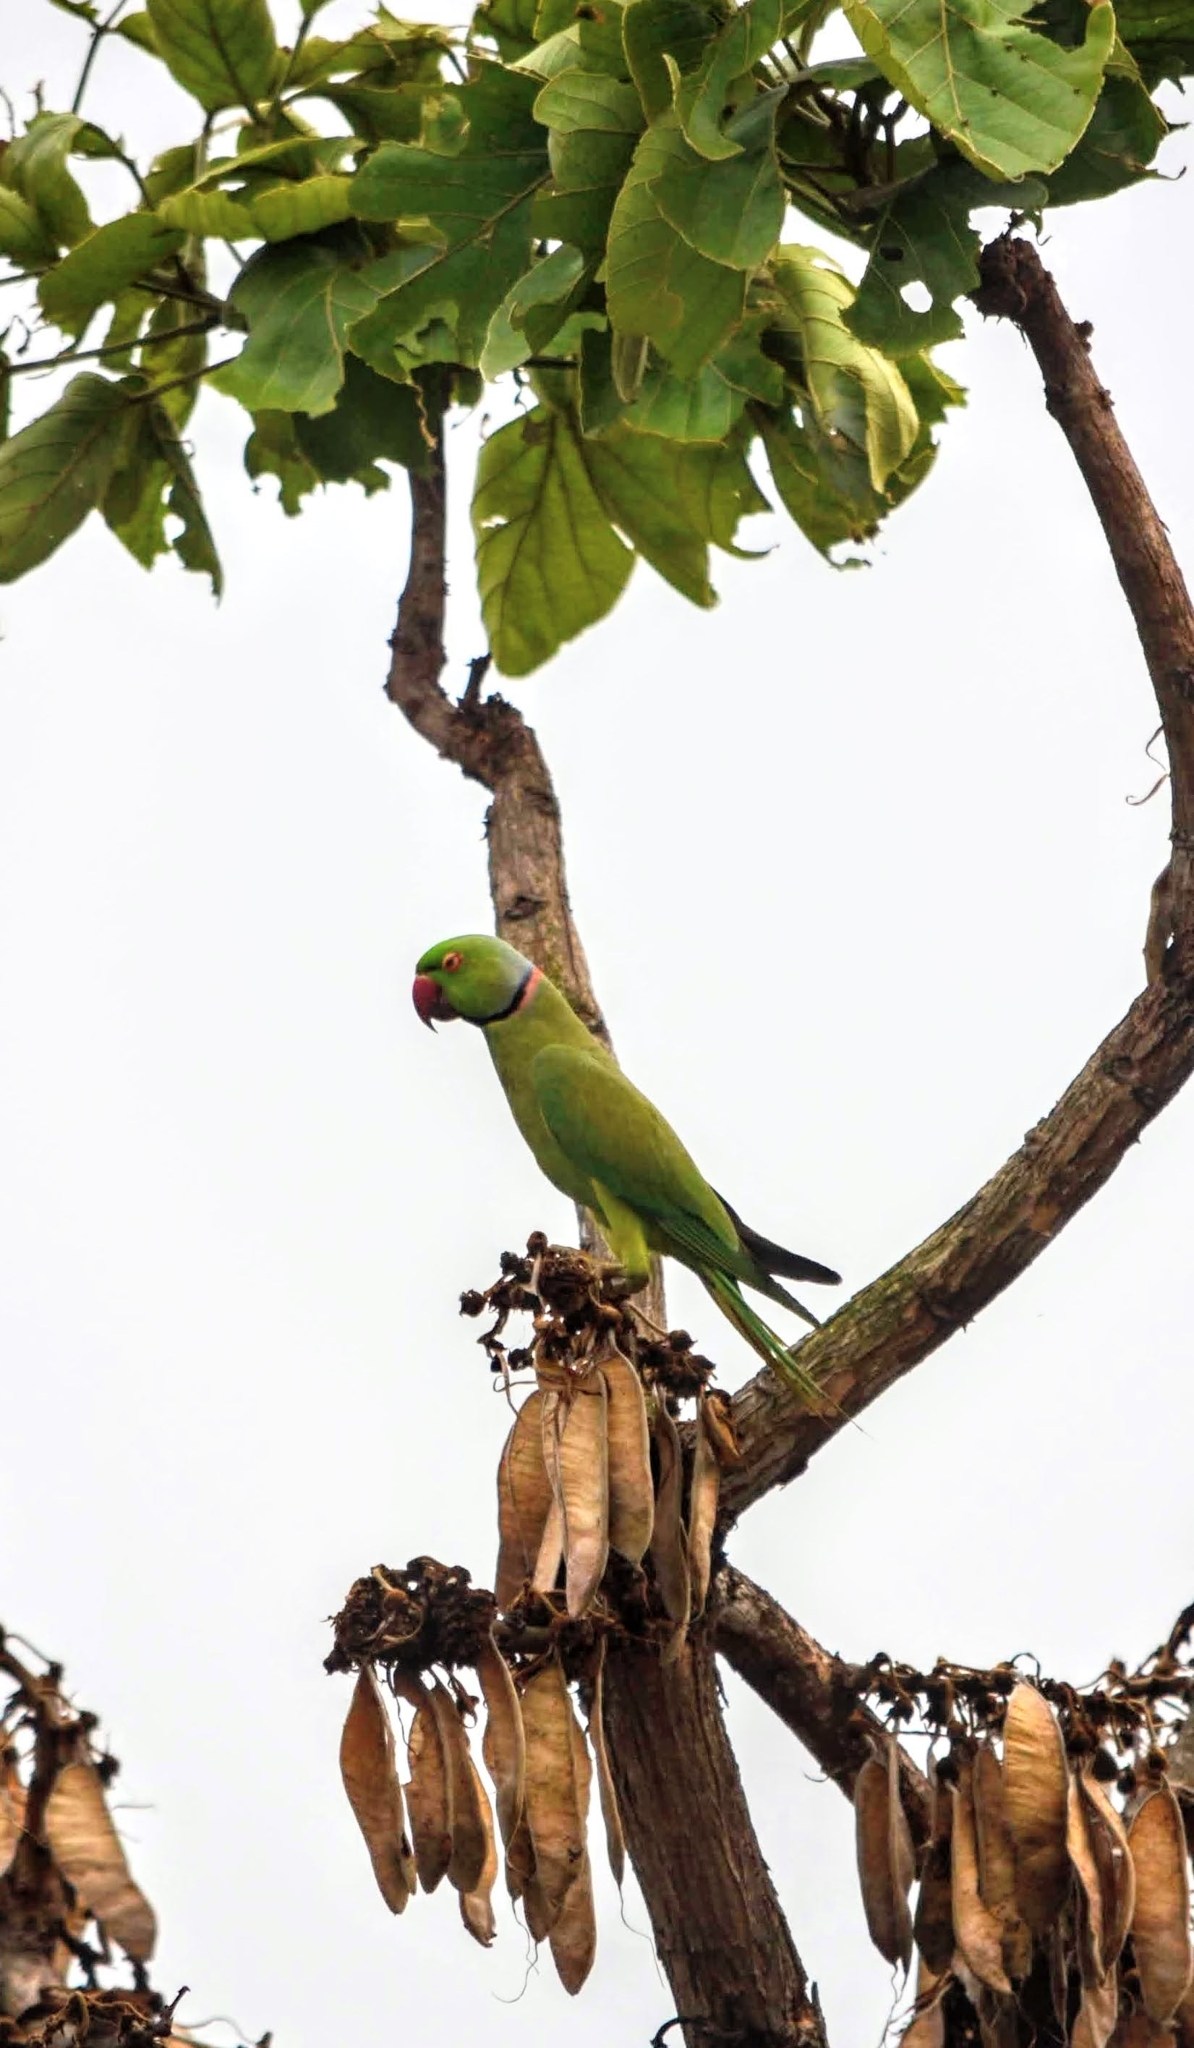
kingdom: Animalia
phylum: Chordata
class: Aves
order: Psittaciformes
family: Psittacidae
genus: Psittacula
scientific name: Psittacula krameri
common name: Rose-ringed parakeet
